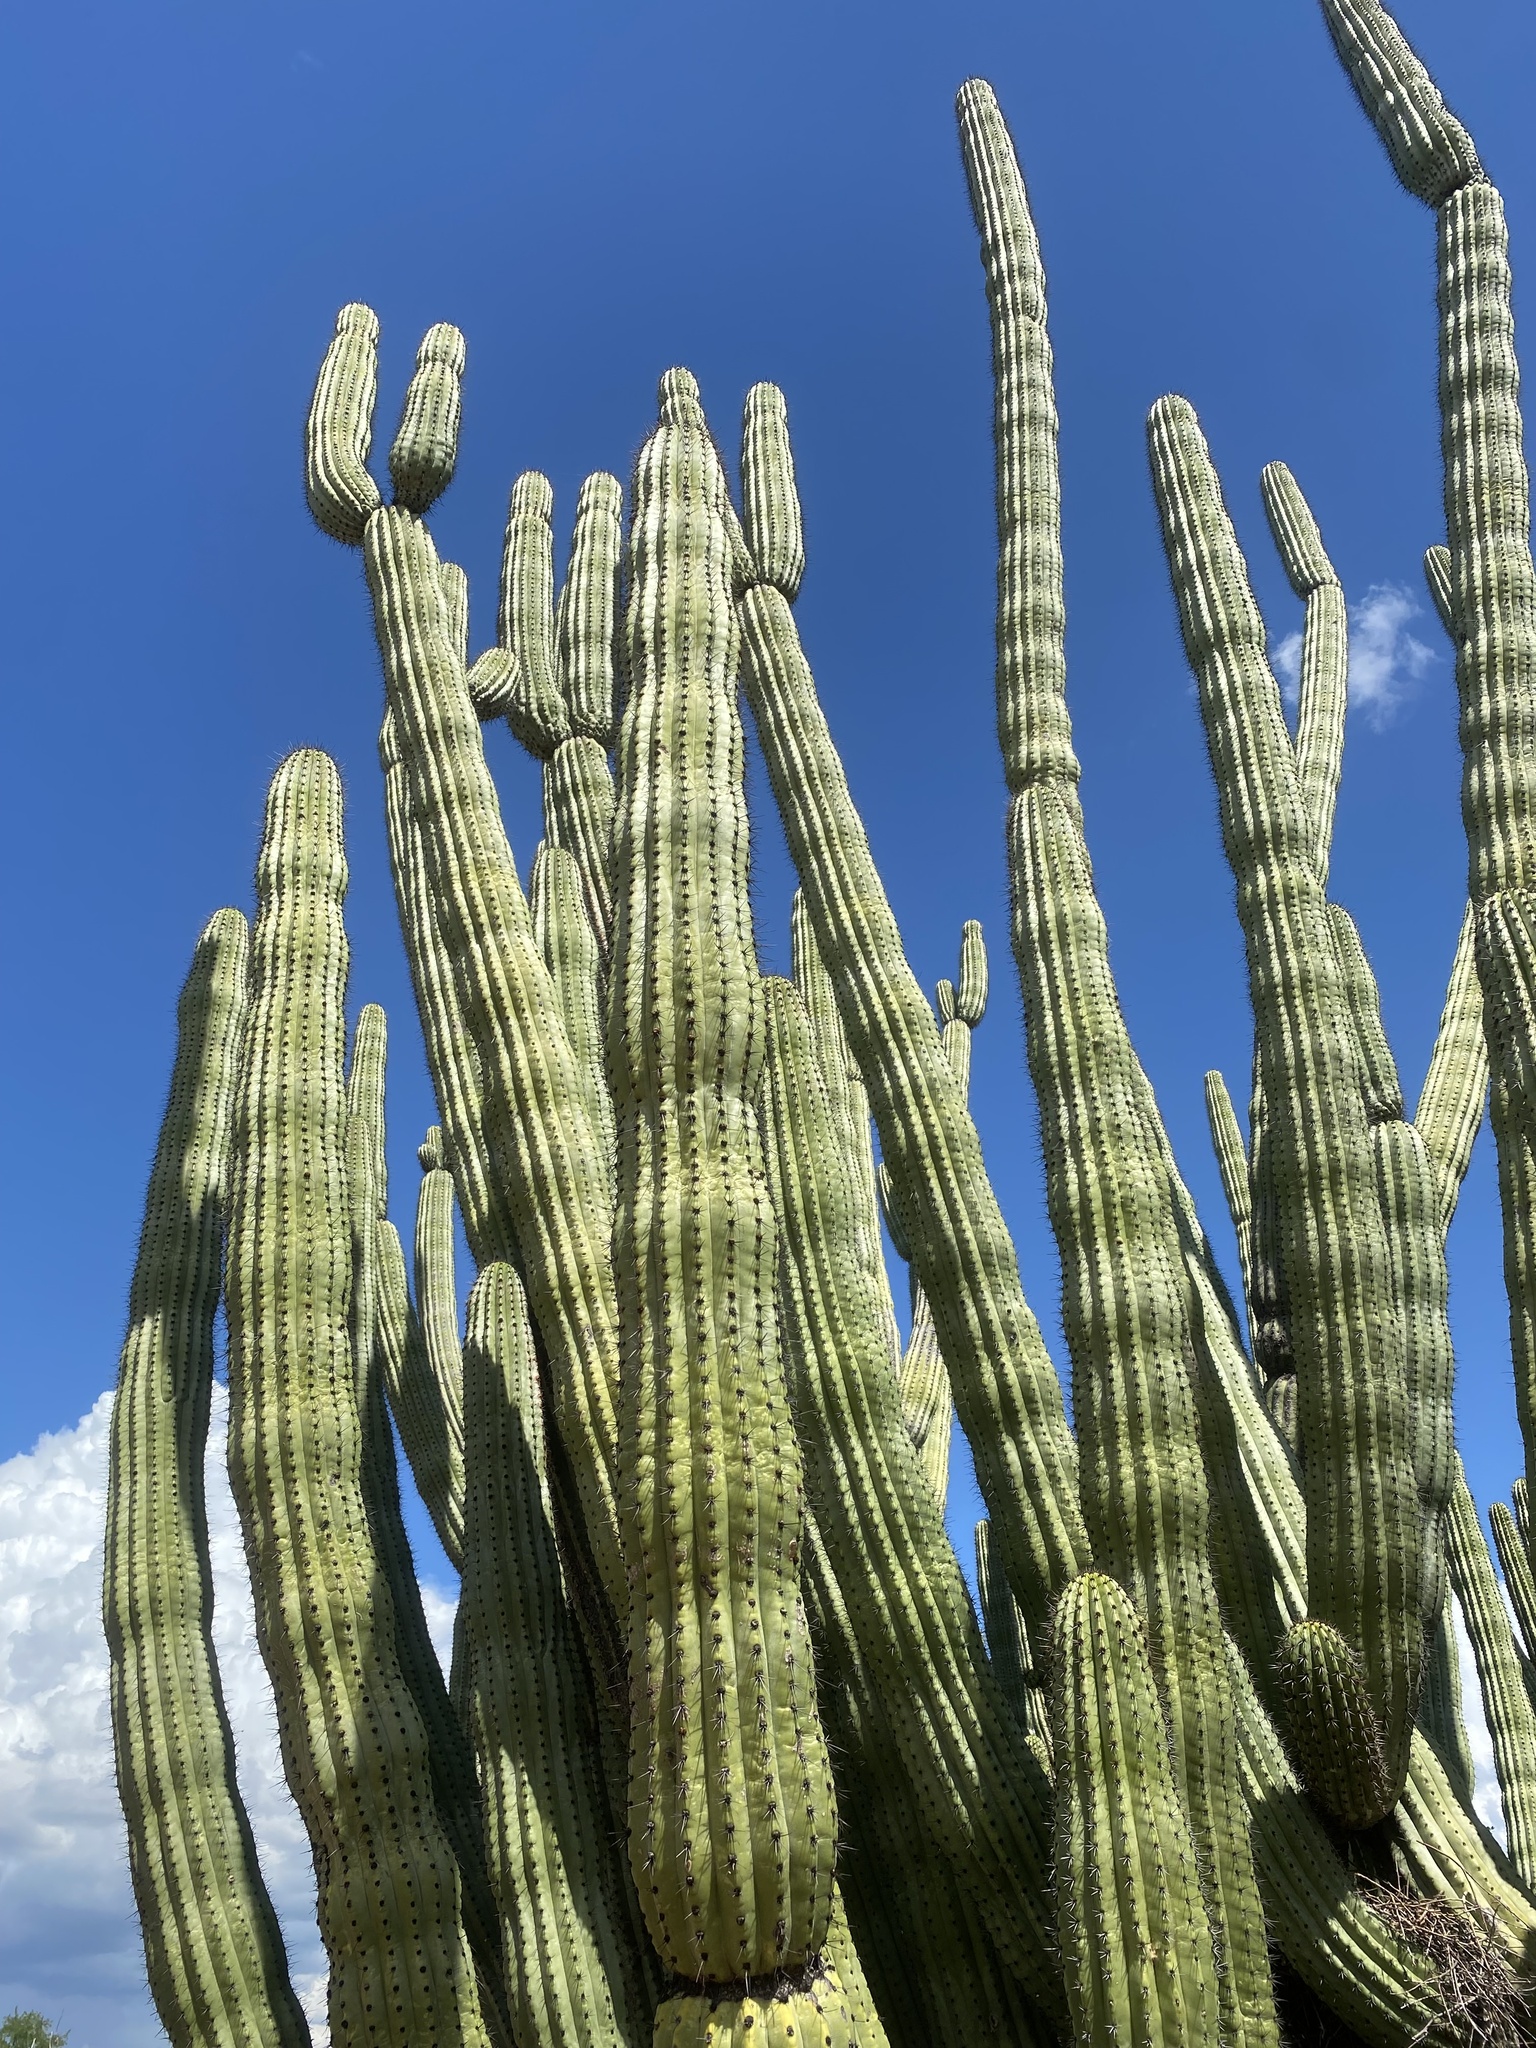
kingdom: Plantae
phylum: Tracheophyta
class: Magnoliopsida
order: Caryophyllales
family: Cactaceae
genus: Stenocereus
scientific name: Stenocereus thurberi
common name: Organ pipe cactus
